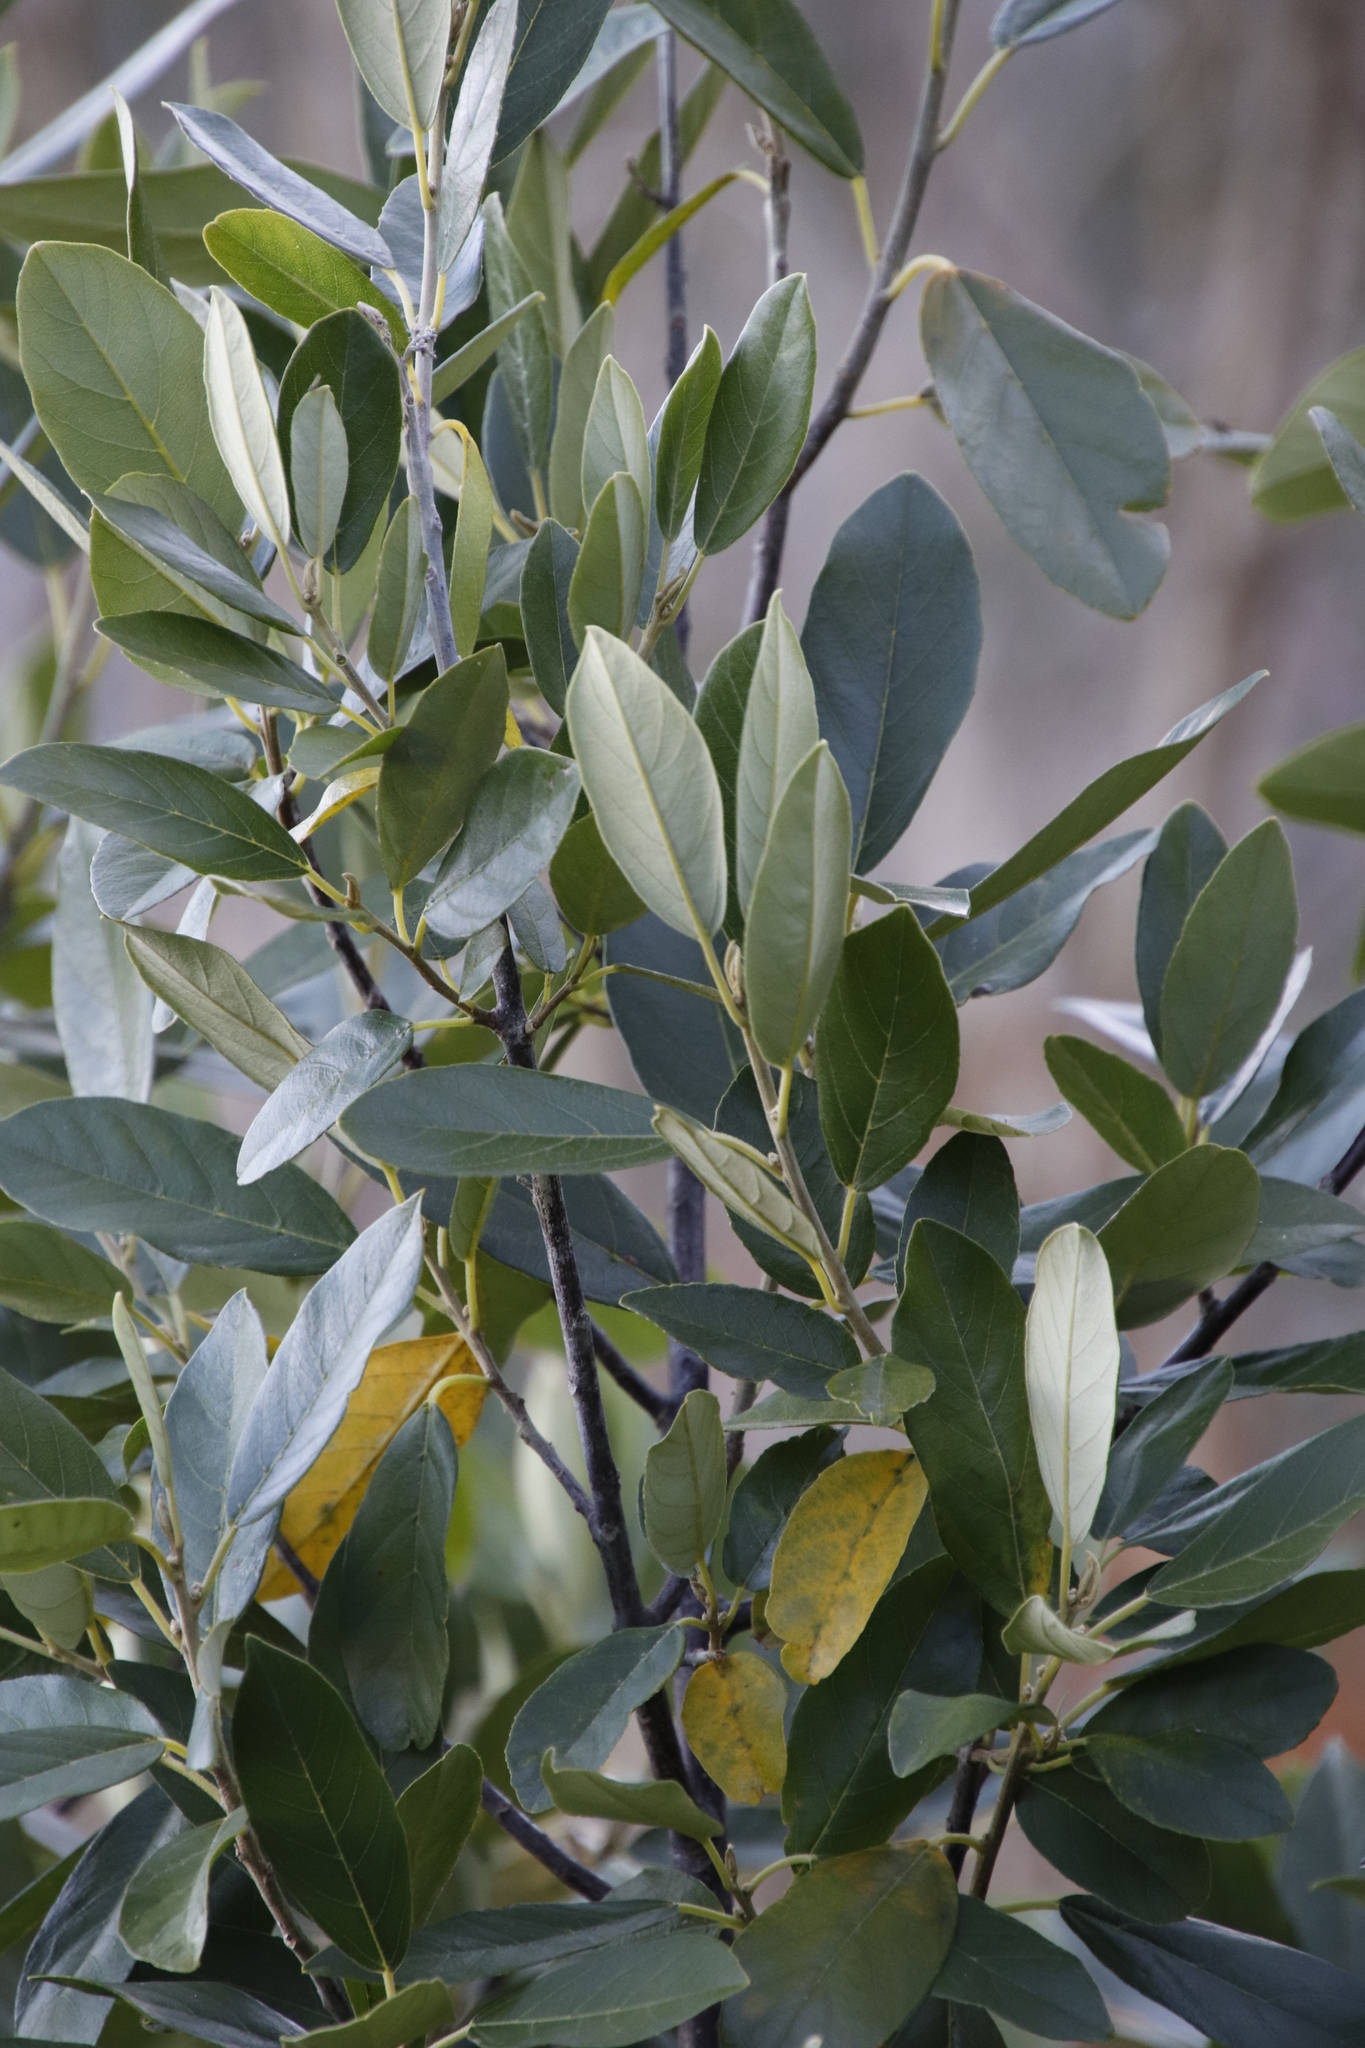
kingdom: Plantae
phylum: Tracheophyta
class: Magnoliopsida
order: Malpighiales
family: Achariaceae
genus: Kiggelaria
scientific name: Kiggelaria africana
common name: Wild peach
